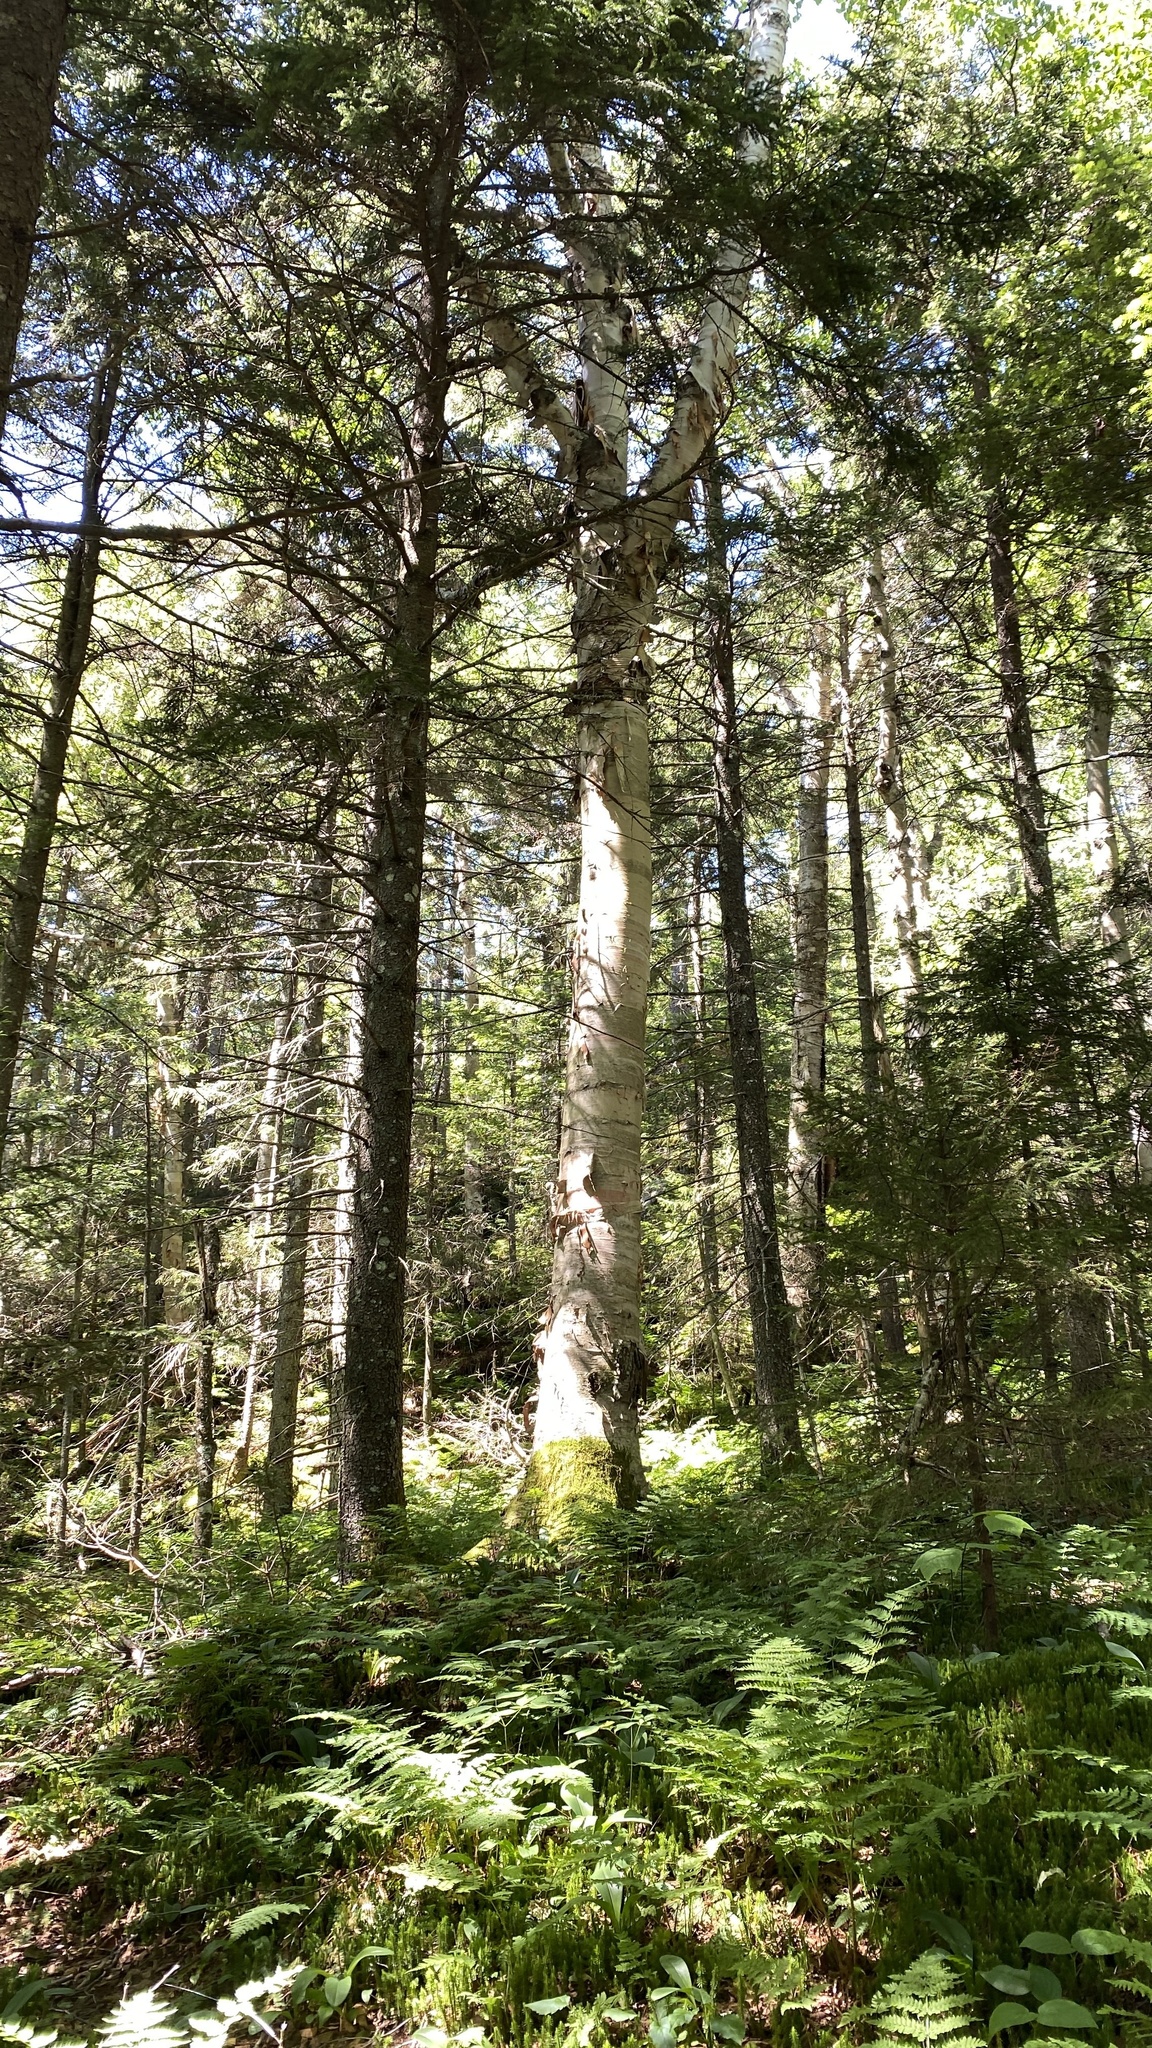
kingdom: Plantae
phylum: Tracheophyta
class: Magnoliopsida
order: Fagales
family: Betulaceae
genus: Betula
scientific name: Betula cordifolia
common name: Mountain white birch
